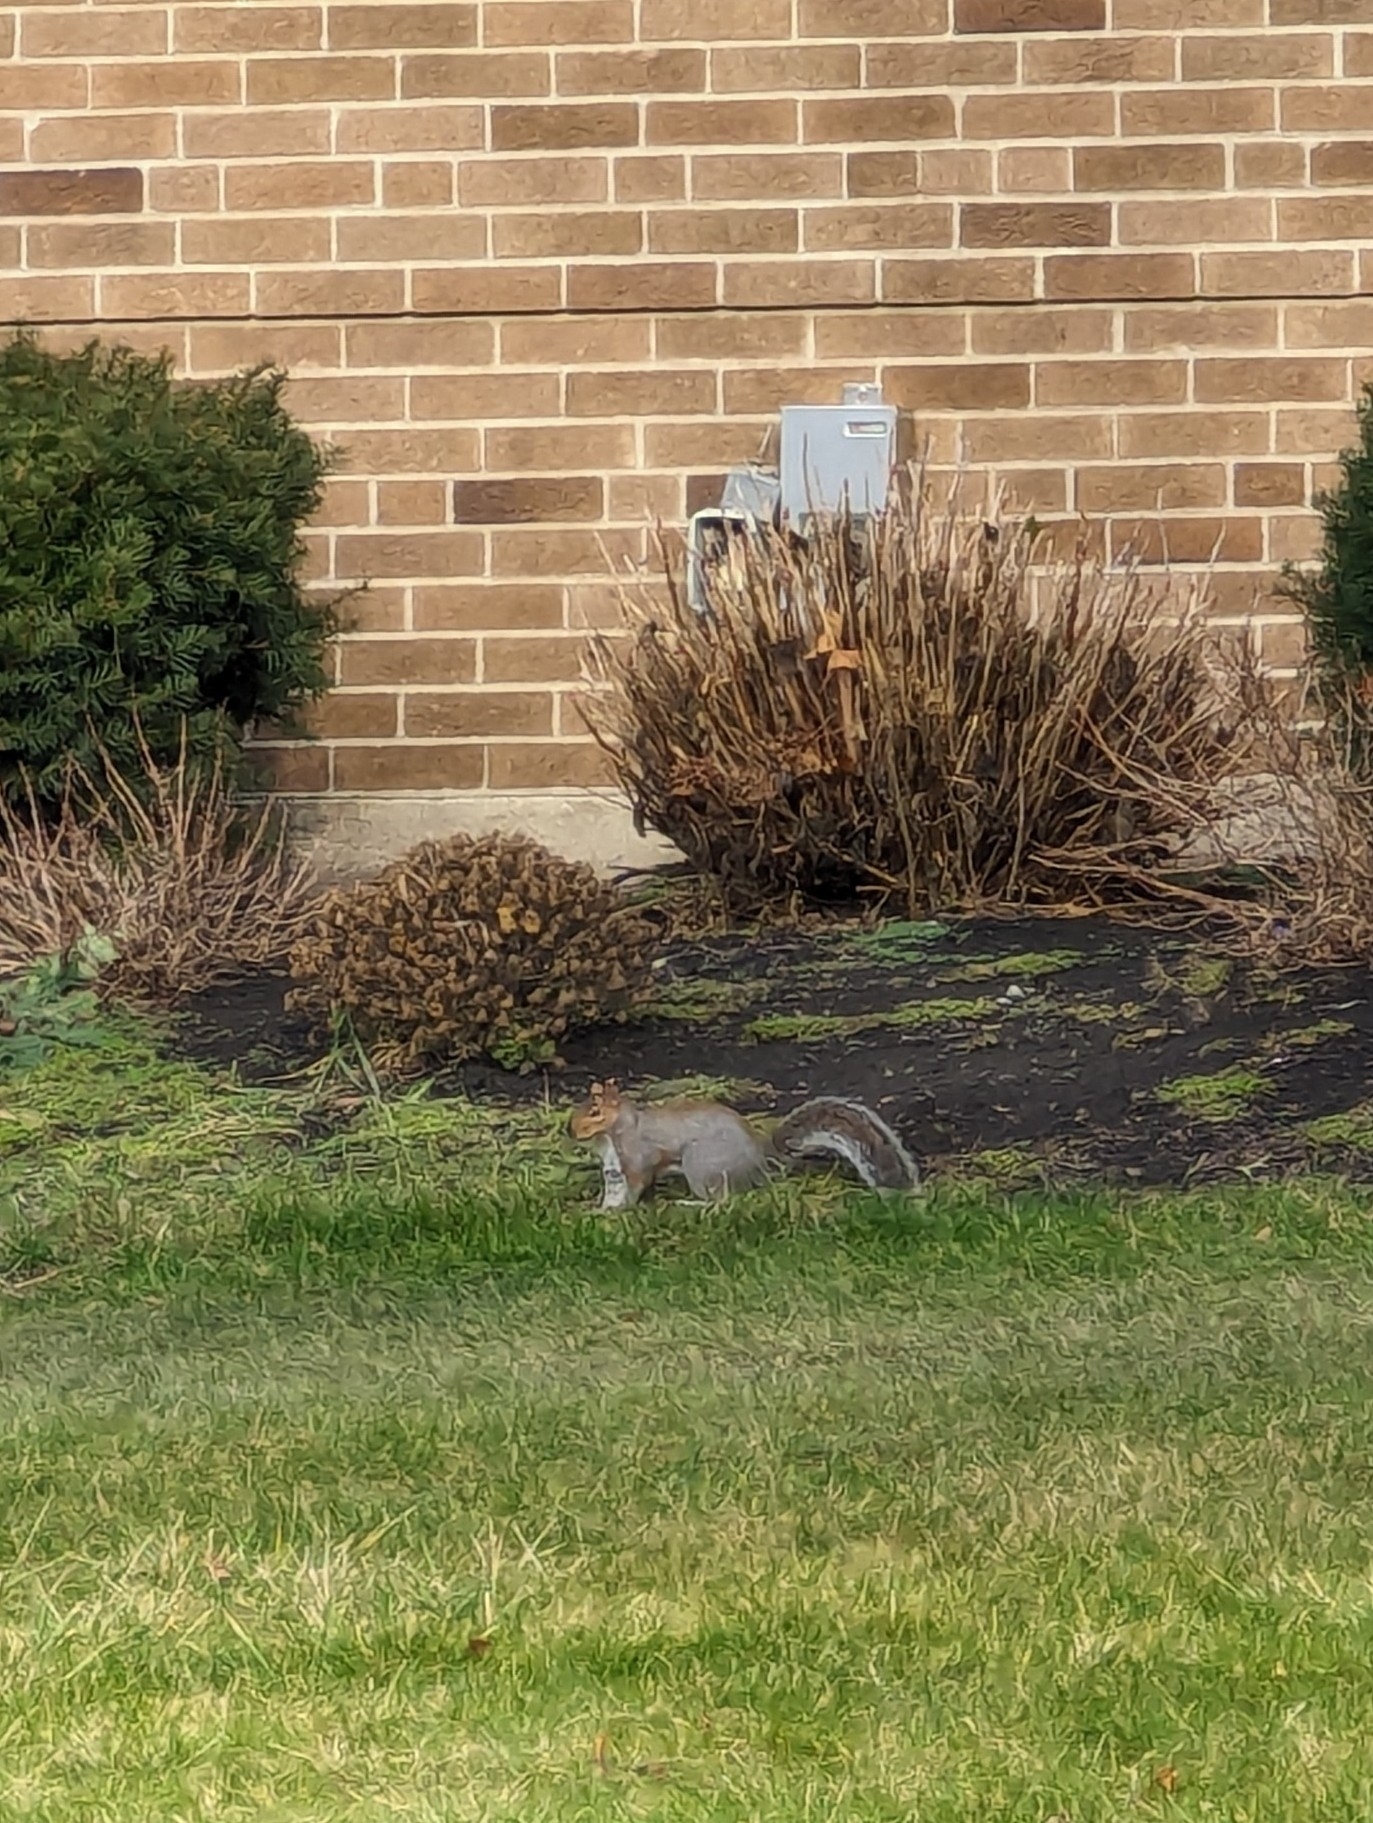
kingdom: Animalia
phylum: Chordata
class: Mammalia
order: Rodentia
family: Sciuridae
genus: Sciurus
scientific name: Sciurus carolinensis
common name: Eastern gray squirrel
